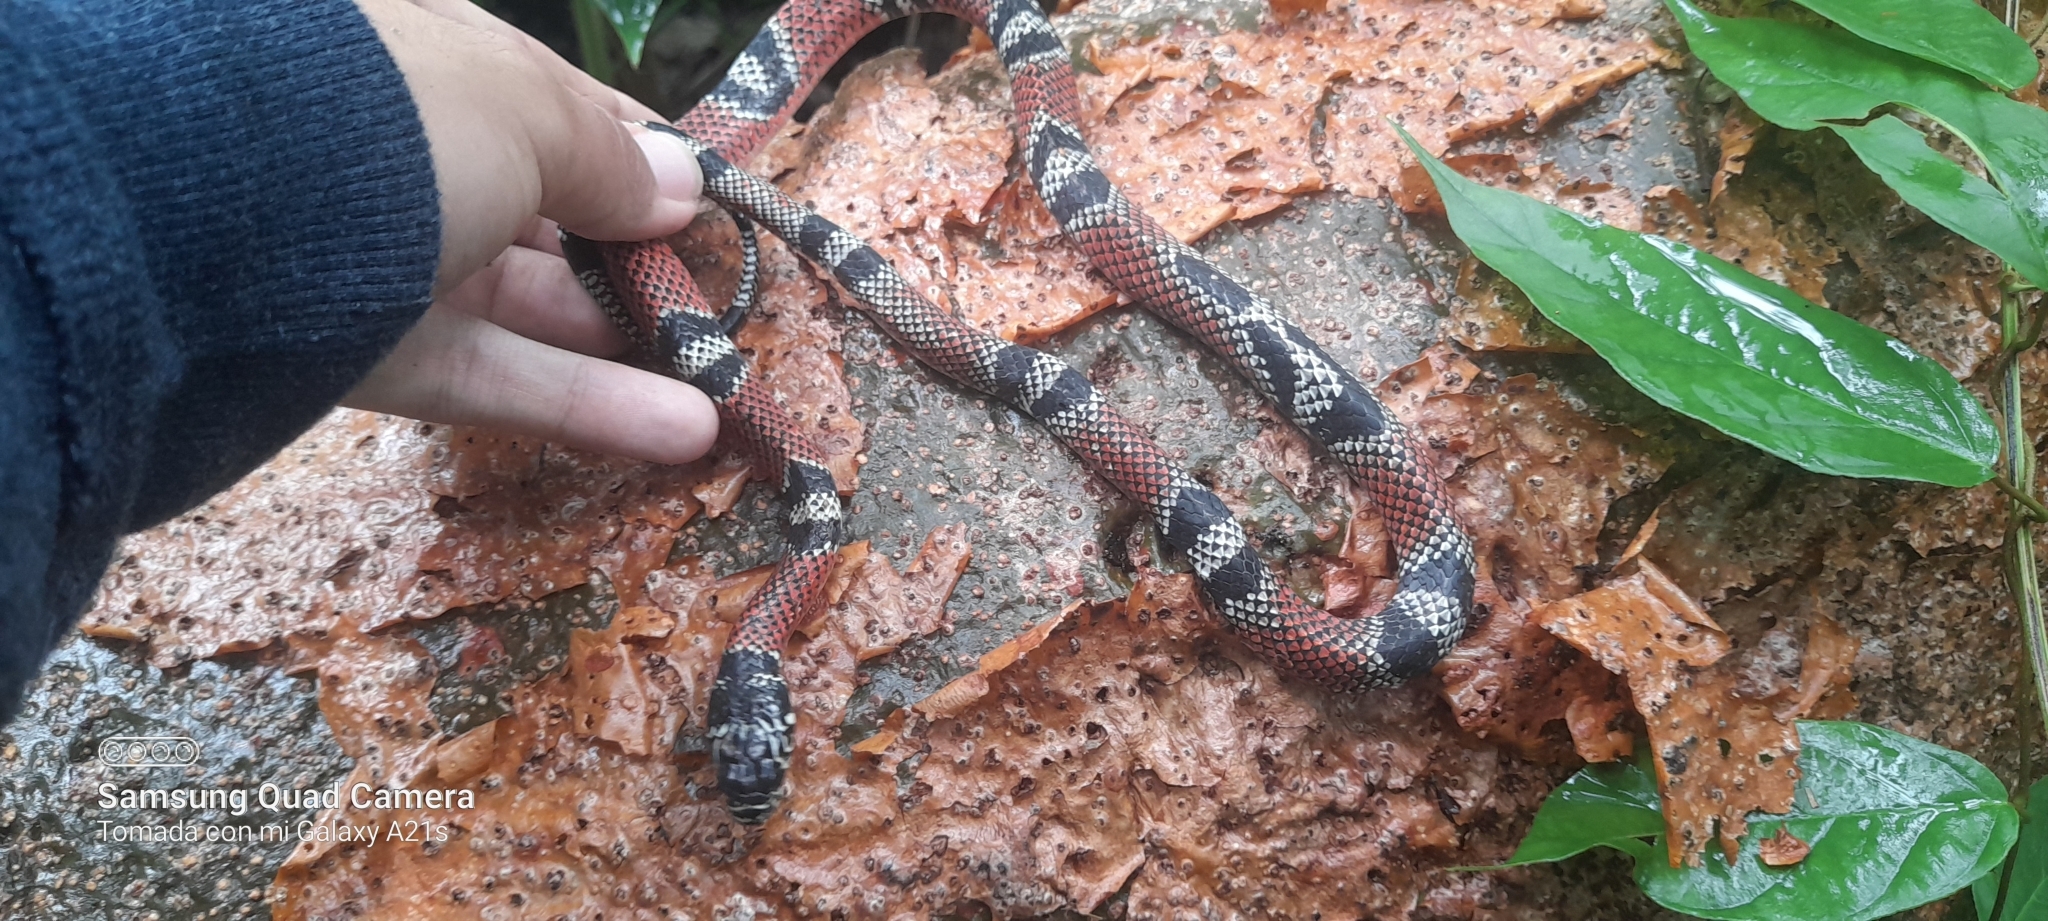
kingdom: Animalia
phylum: Chordata
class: Squamata
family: Colubridae
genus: Erythrolamprus
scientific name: Erythrolamprus bizona
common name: Double-banded coral snake mimic
